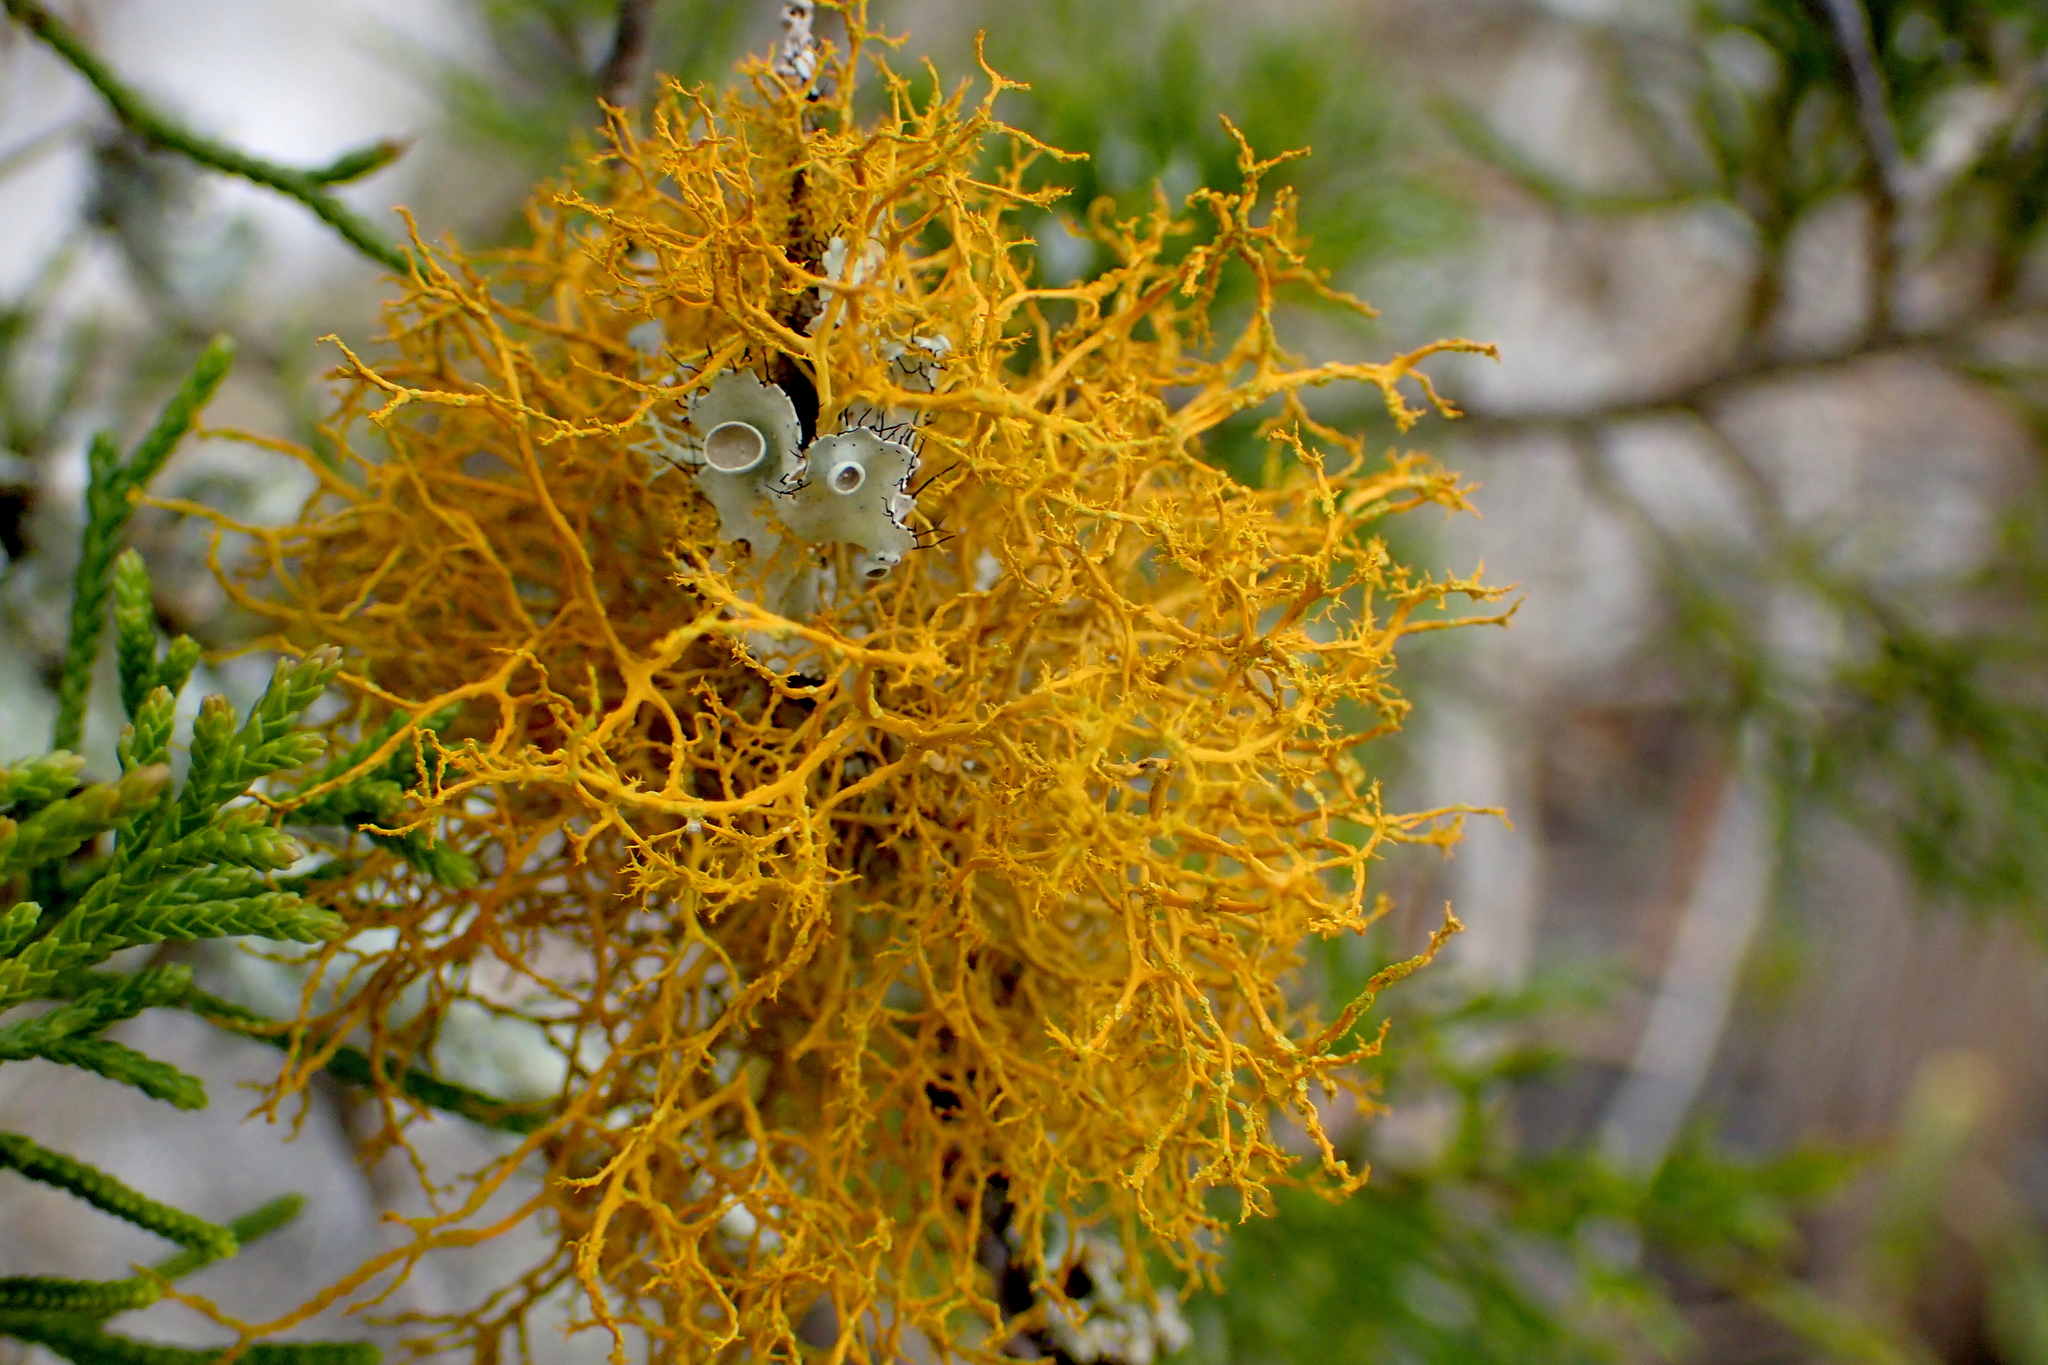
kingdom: Fungi
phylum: Ascomycota
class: Lecanoromycetes
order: Teloschistales
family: Teloschistaceae
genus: Teloschistes
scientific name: Teloschistes flavicans
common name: Golden hair-lichen
